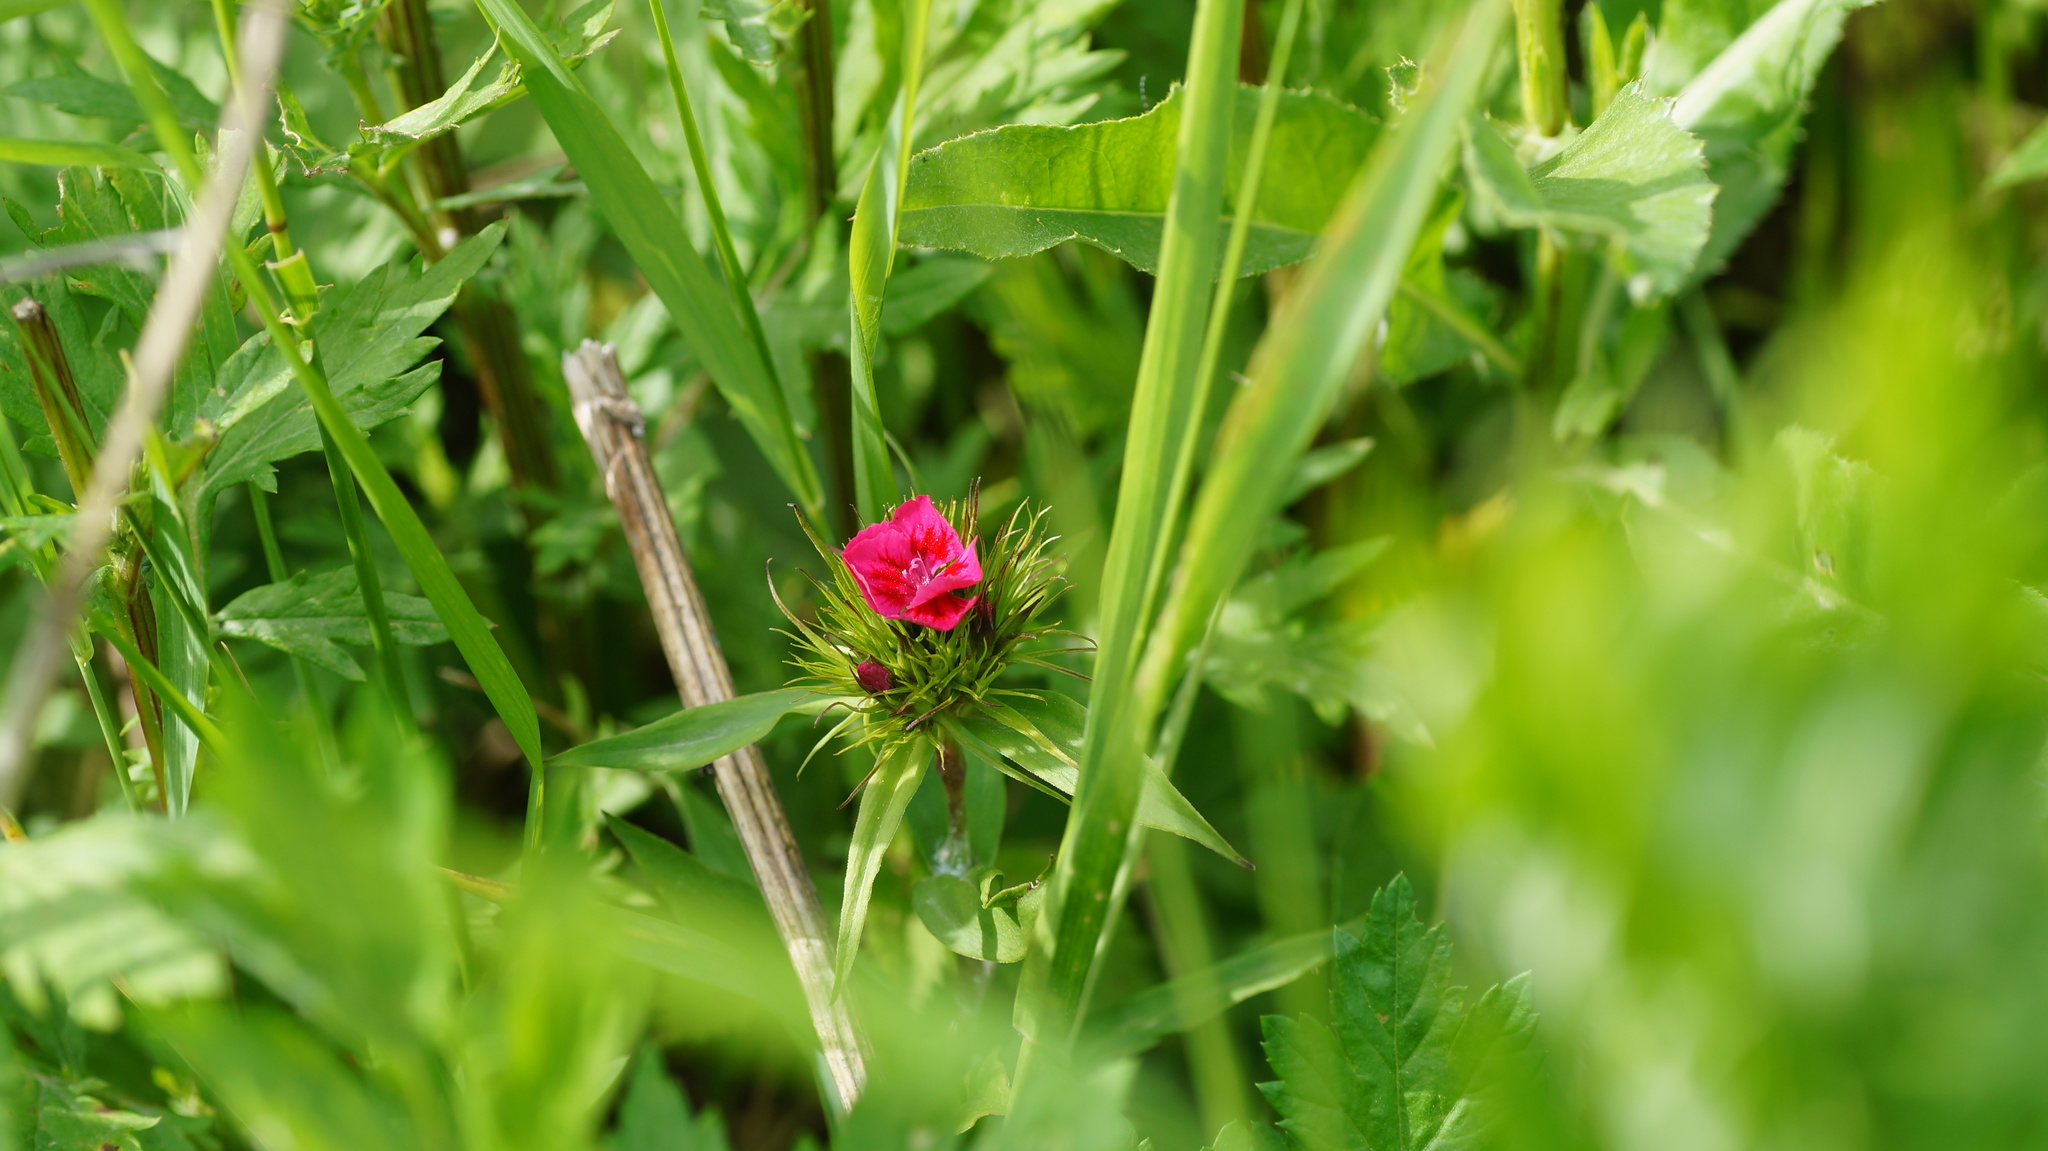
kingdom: Plantae
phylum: Tracheophyta
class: Magnoliopsida
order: Caryophyllales
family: Caryophyllaceae
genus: Dianthus
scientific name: Dianthus barbatus
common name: Sweet-william
